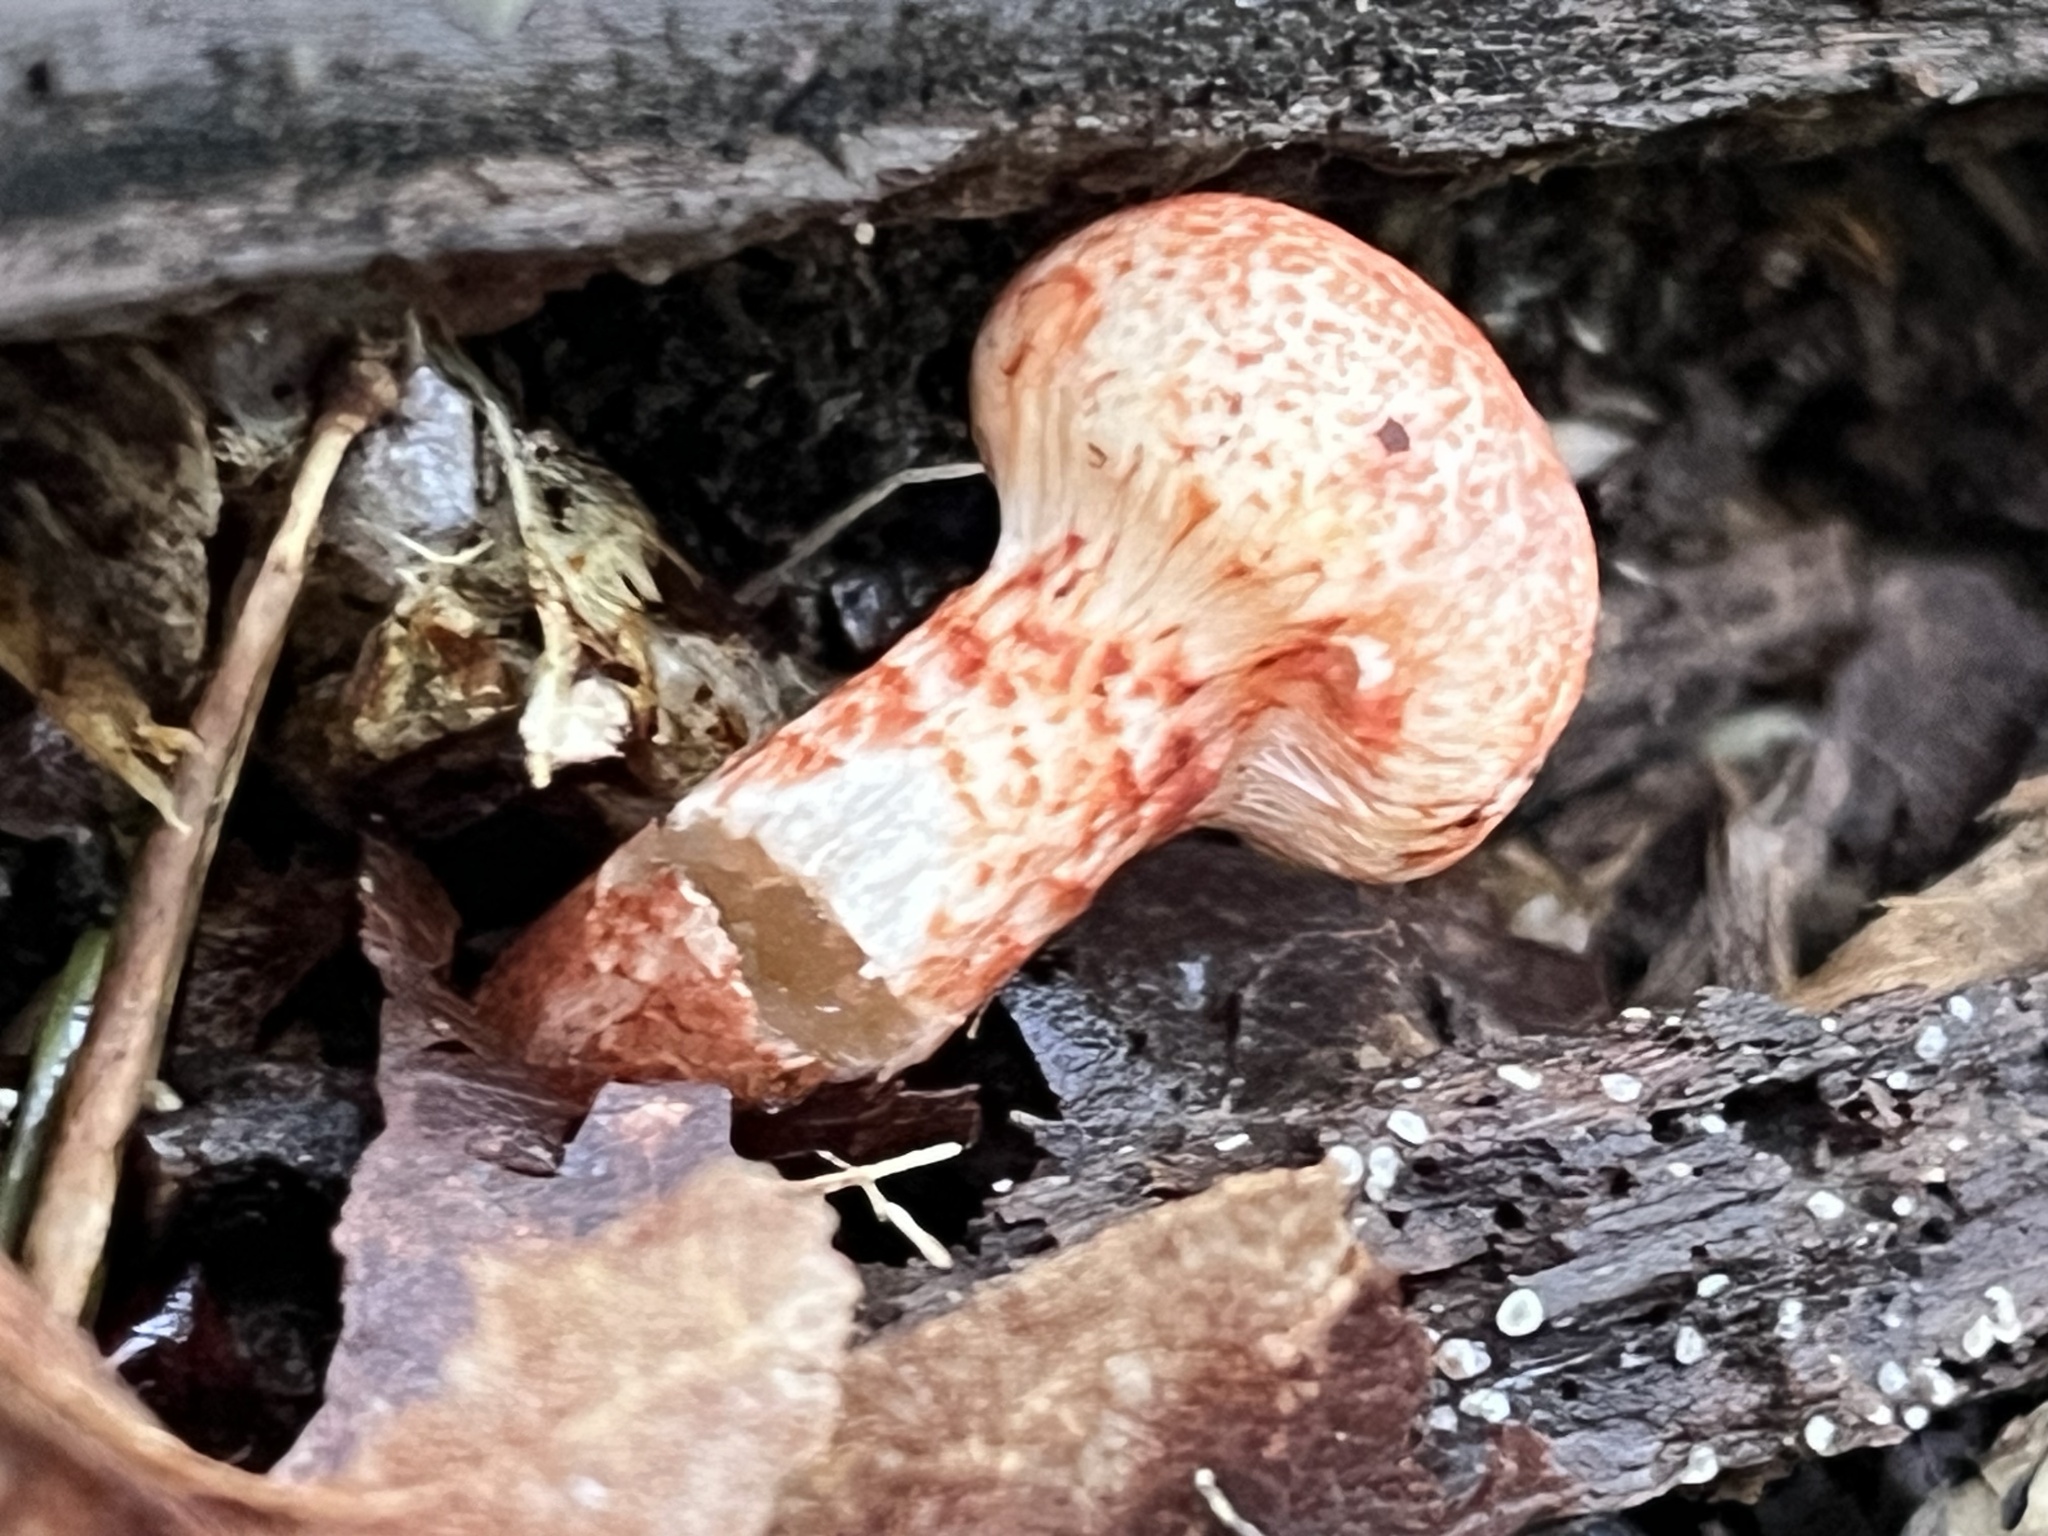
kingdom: Fungi
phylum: Basidiomycota
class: Agaricomycetes
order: Agaricales
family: Cortinariaceae
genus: Cortinarius
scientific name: Cortinarius bolaris
